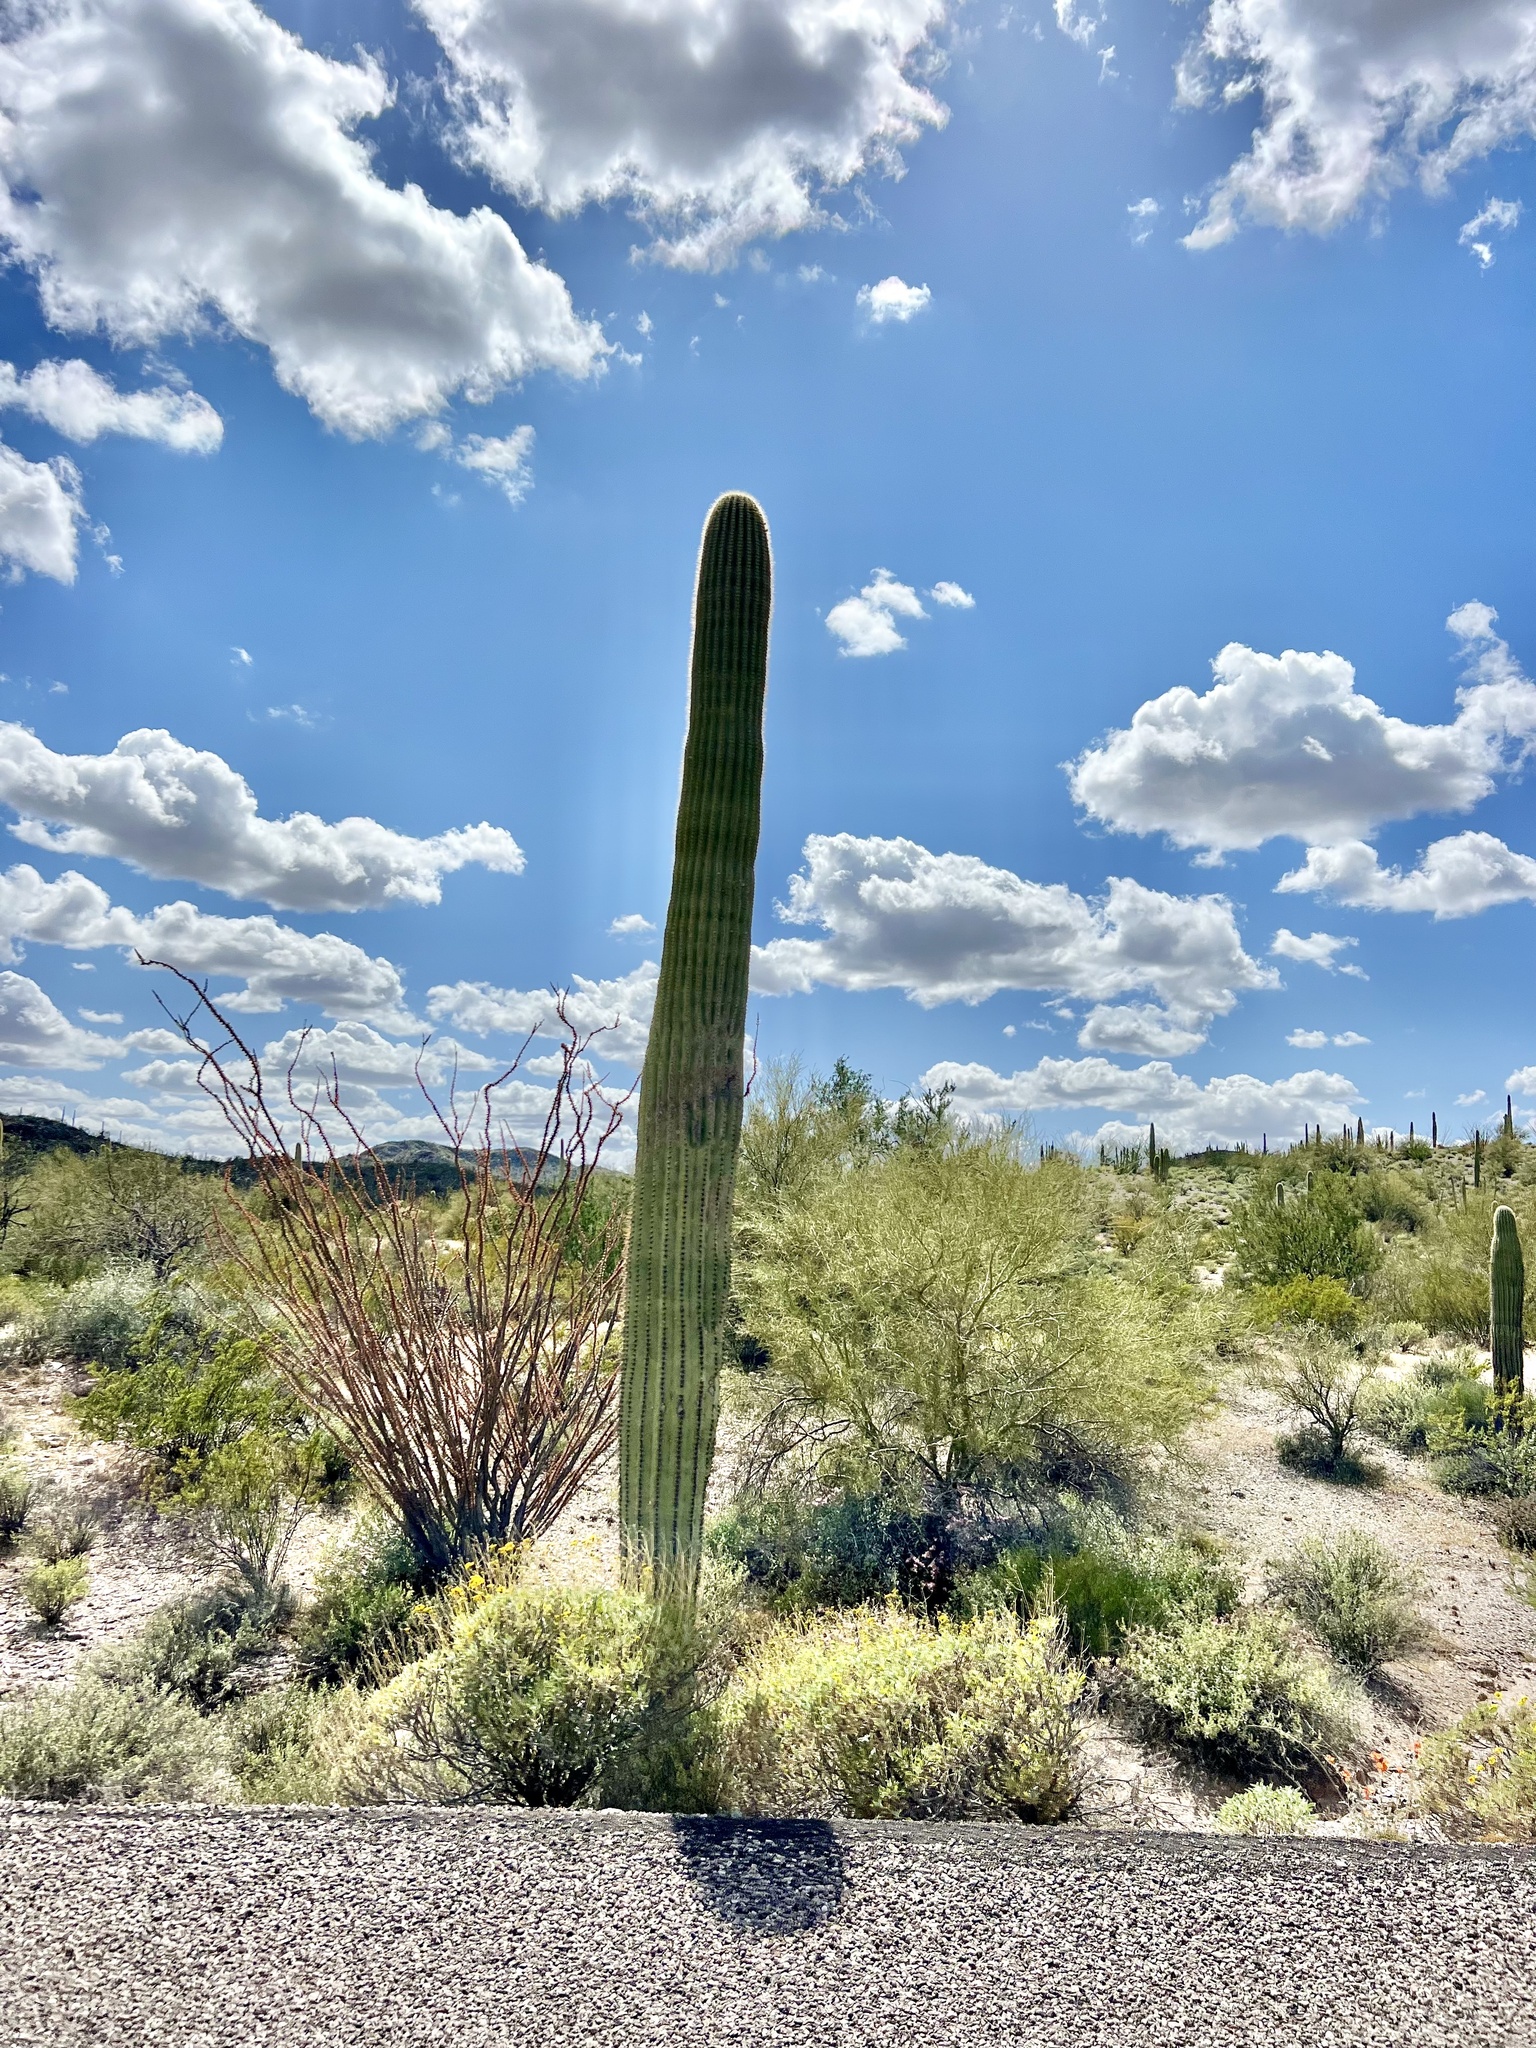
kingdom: Plantae
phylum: Tracheophyta
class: Magnoliopsida
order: Caryophyllales
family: Cactaceae
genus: Carnegiea
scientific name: Carnegiea gigantea
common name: Saguaro
